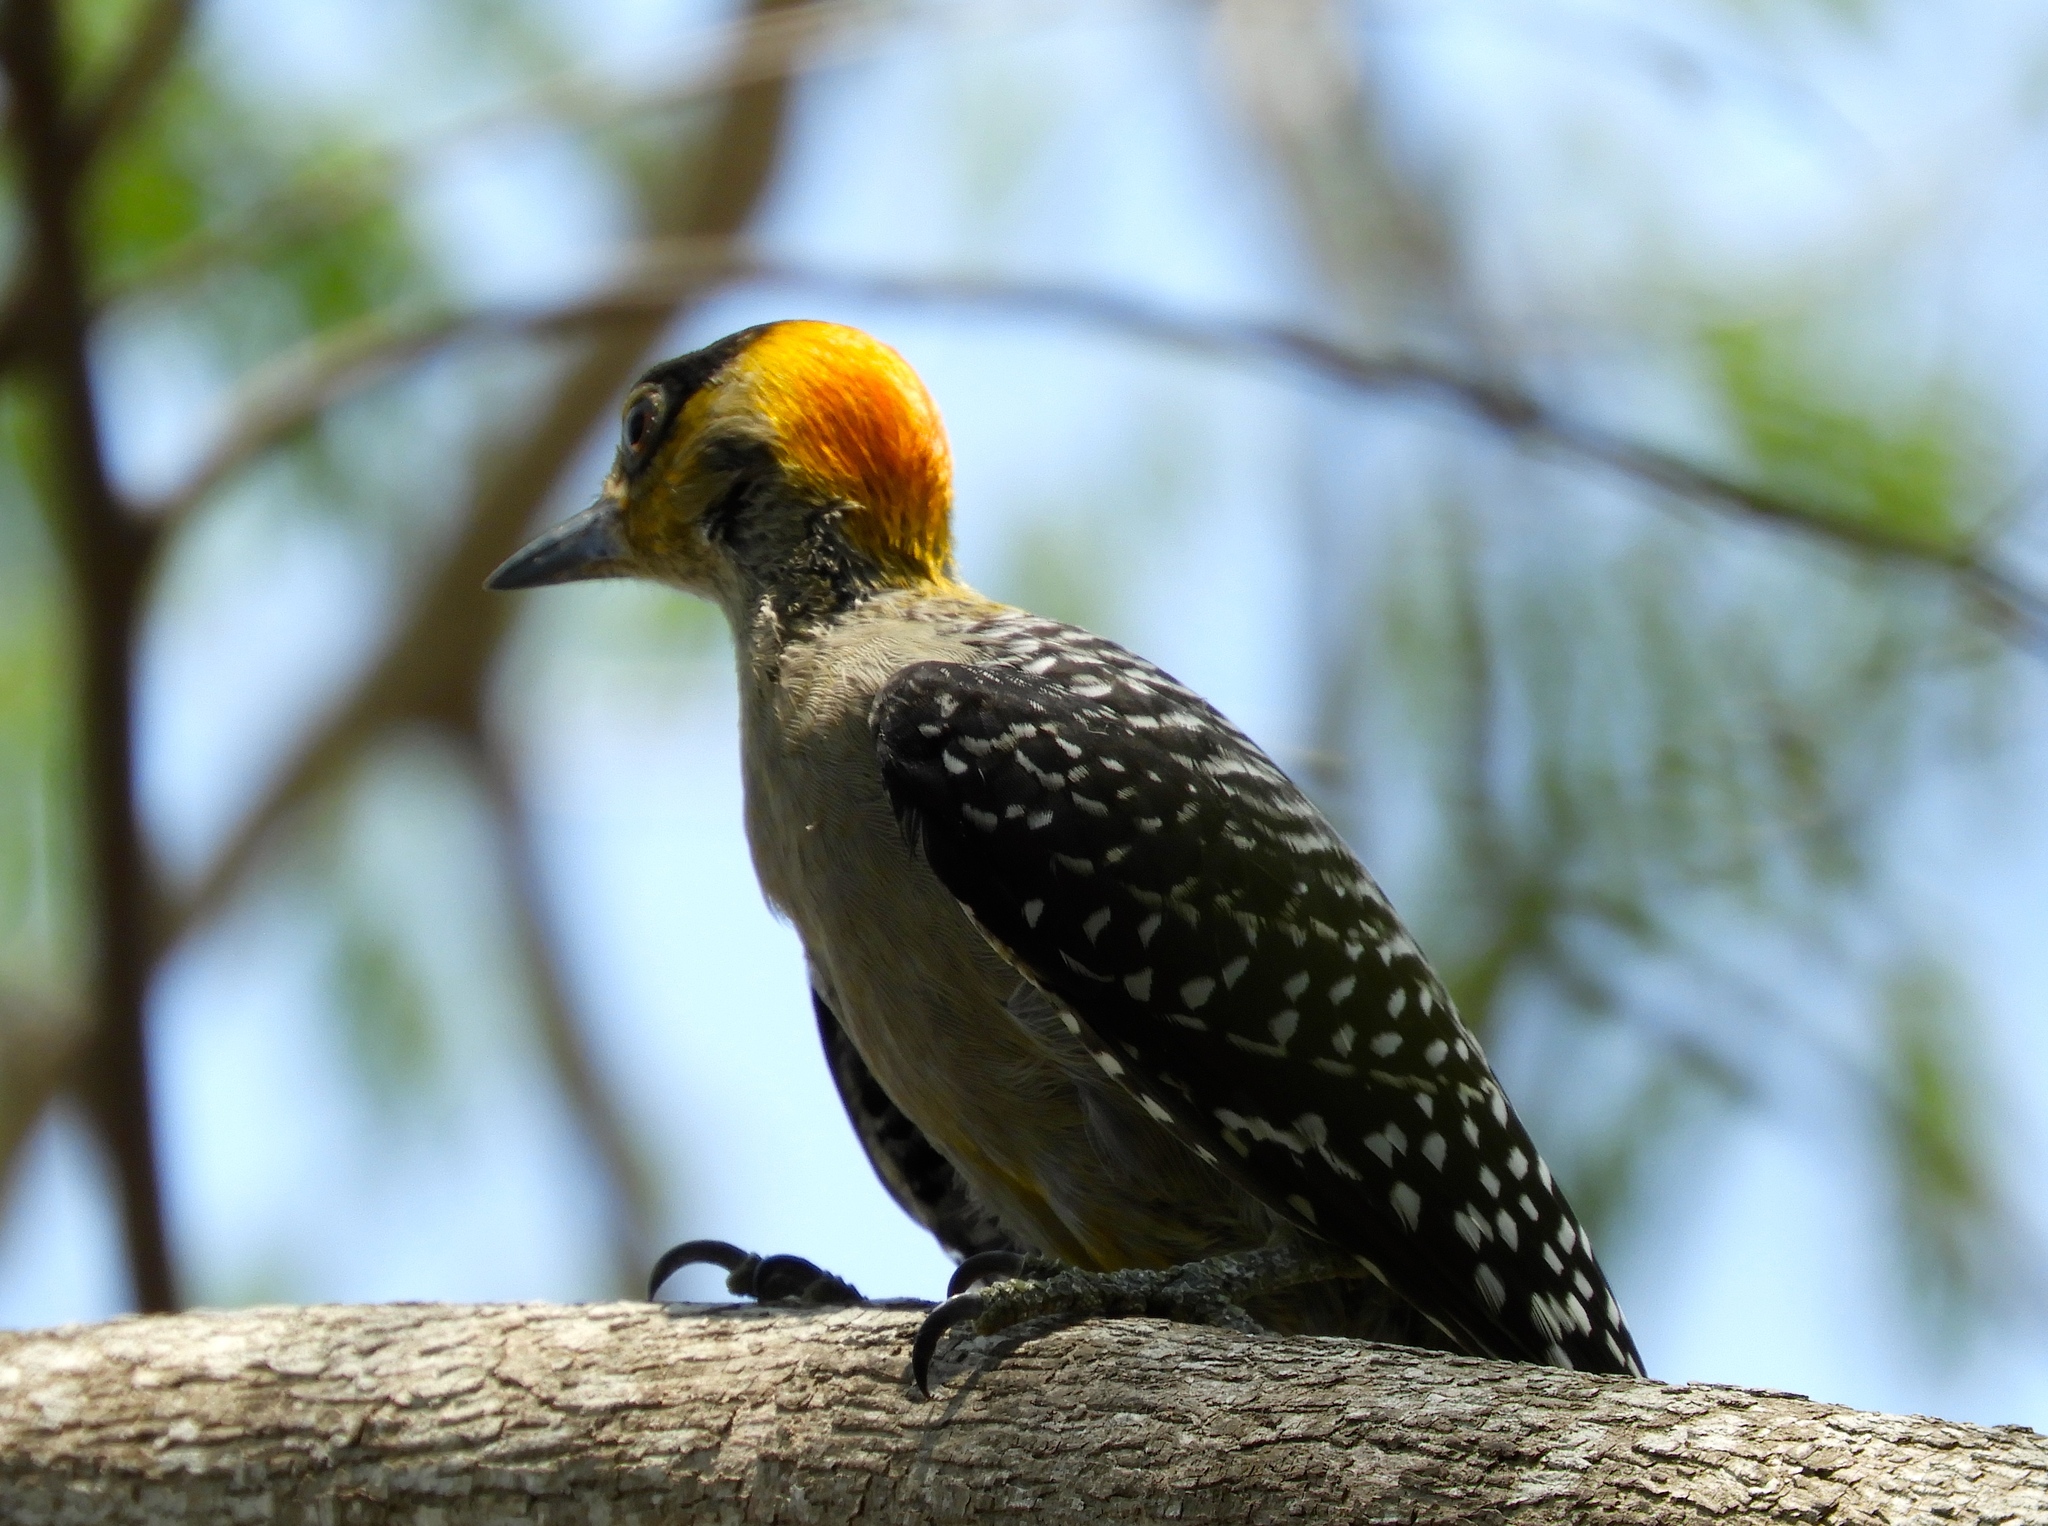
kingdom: Animalia
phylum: Chordata
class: Aves
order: Piciformes
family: Picidae
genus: Melanerpes
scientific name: Melanerpes chrysogenys
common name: Golden-cheeked woodpecker
